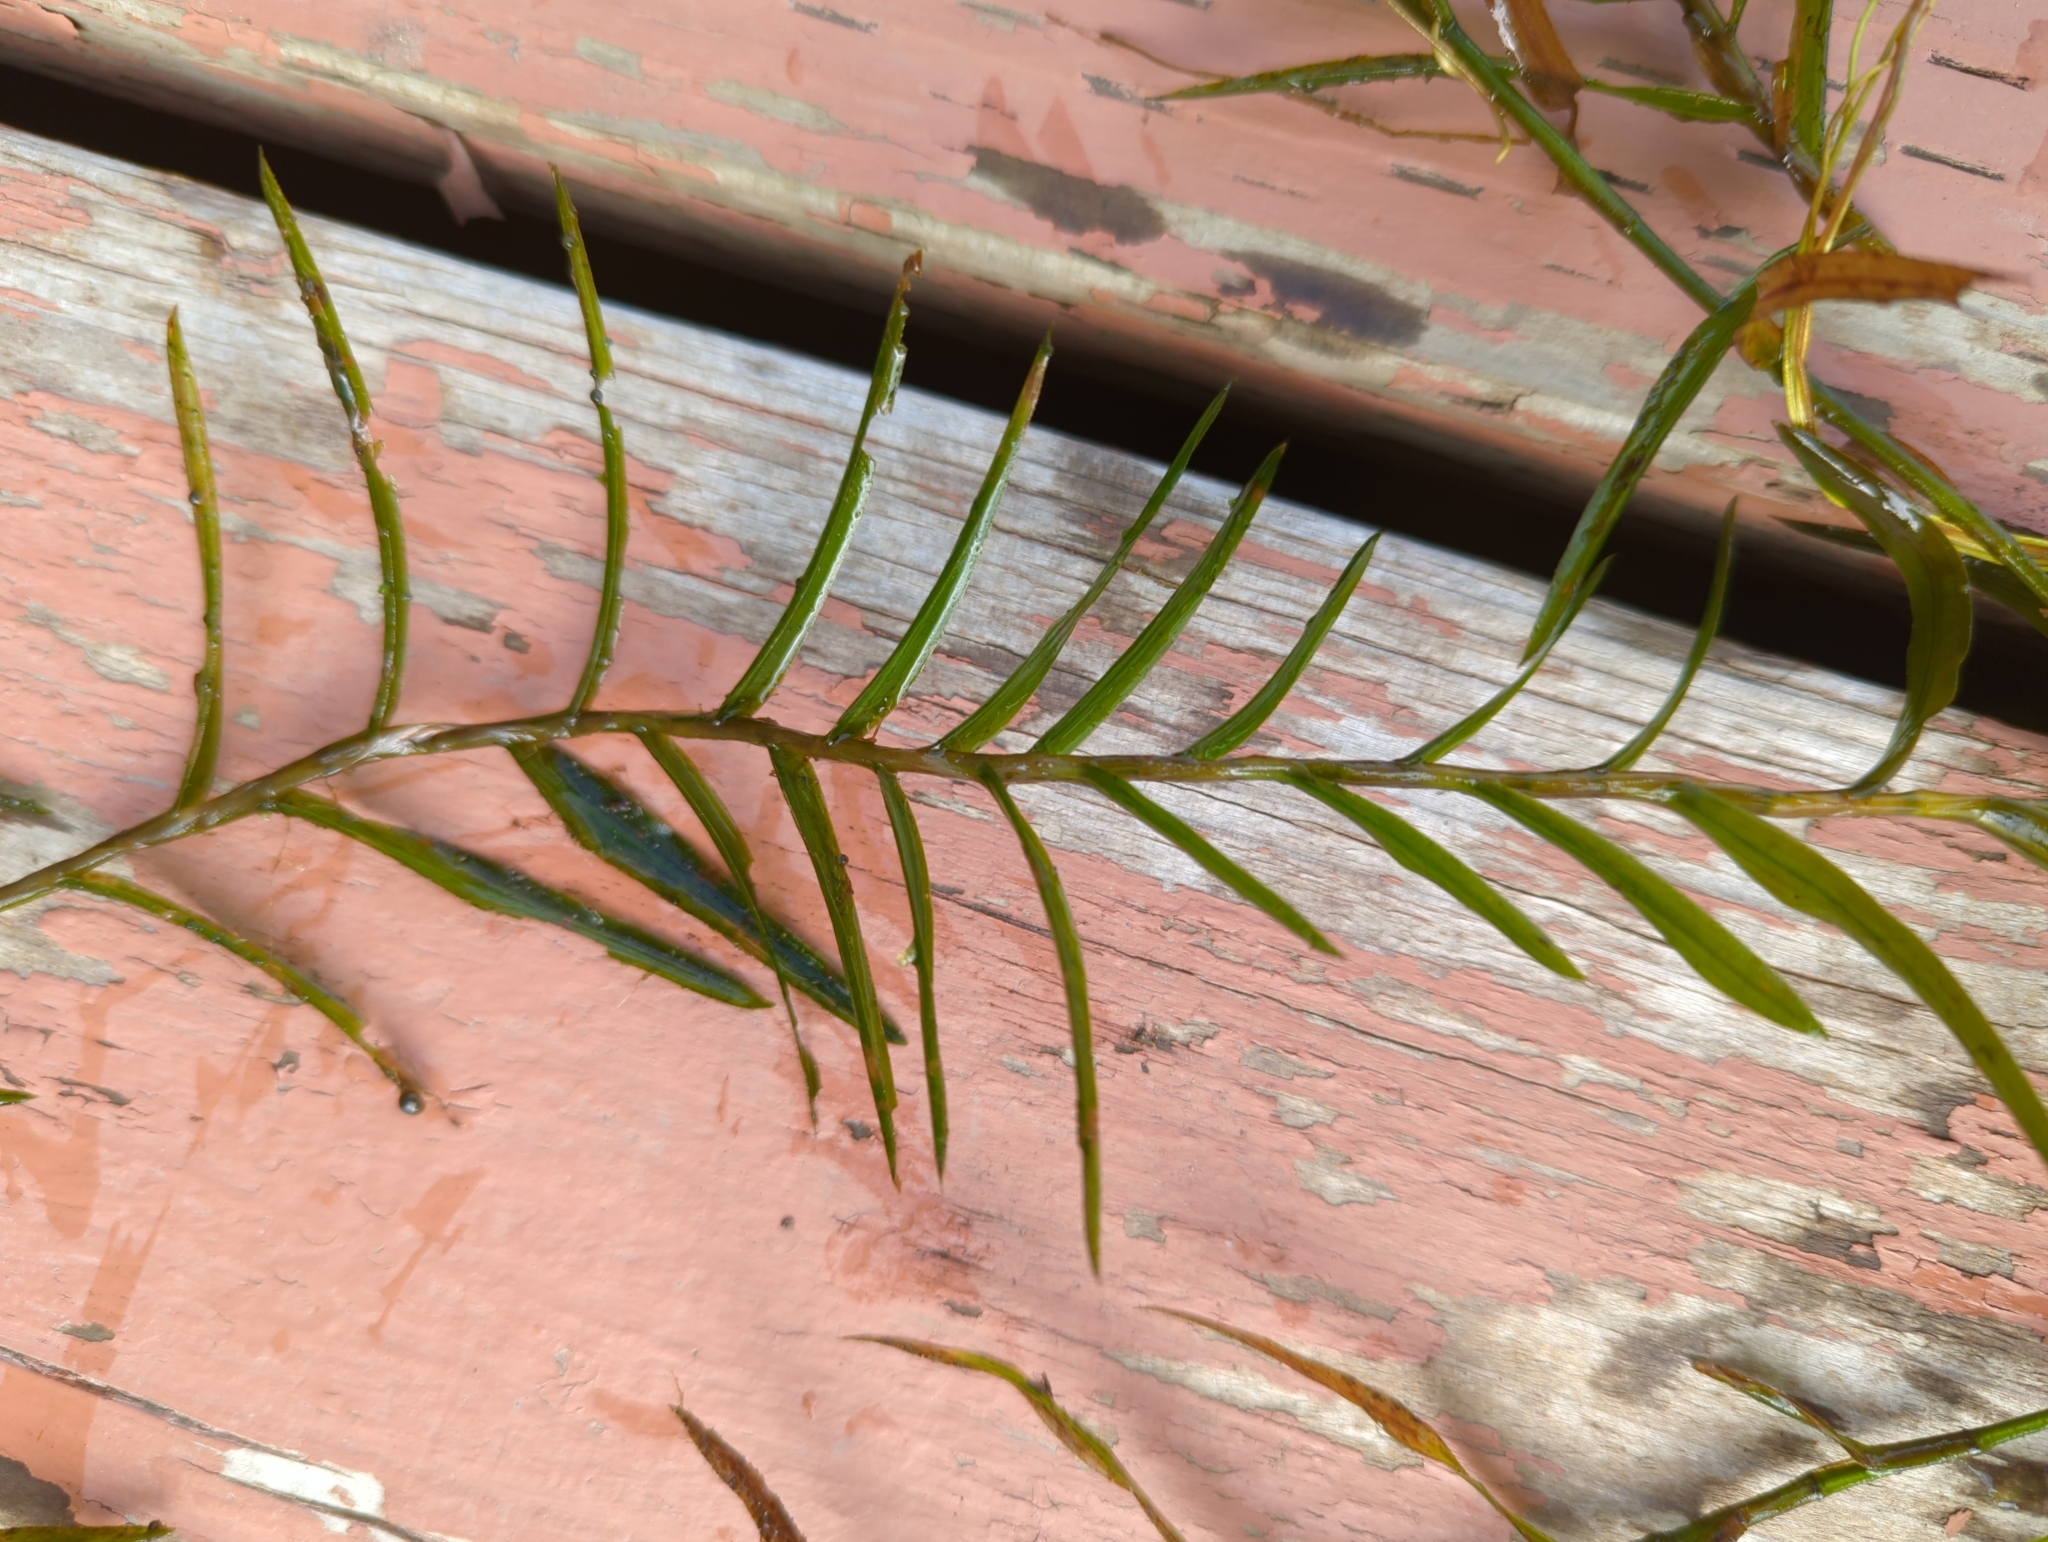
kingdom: Plantae
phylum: Tracheophyta
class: Liliopsida
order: Alismatales
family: Potamogetonaceae
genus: Potamogeton
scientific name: Potamogeton robbinsii
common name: Fern pondweed
